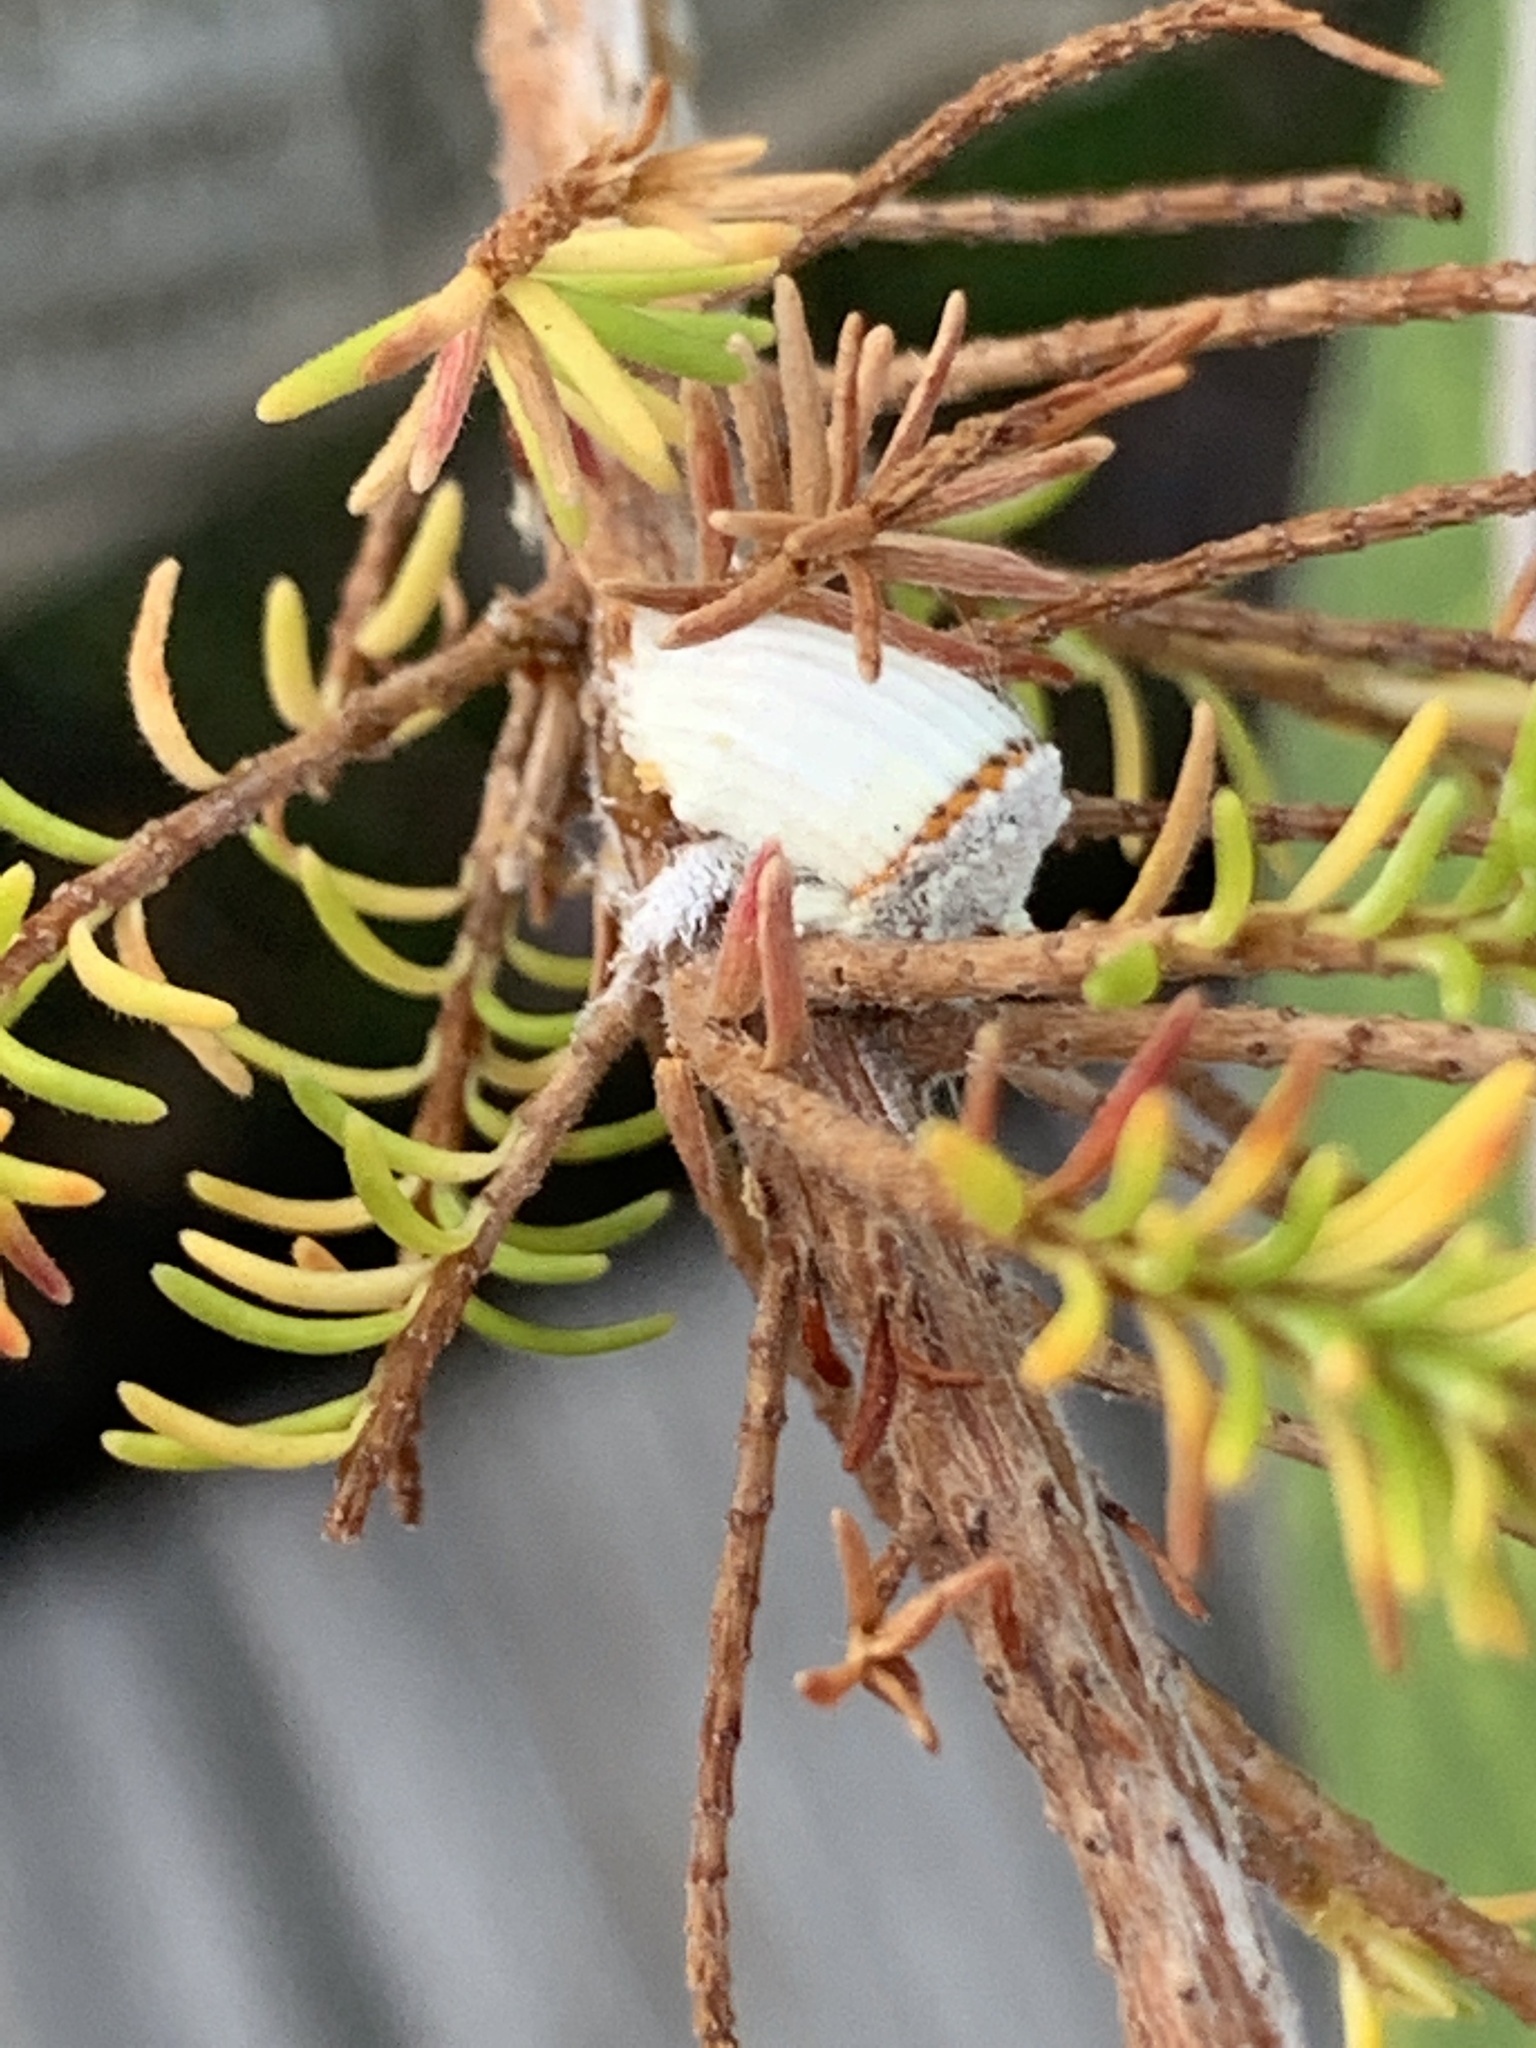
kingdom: Animalia
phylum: Arthropoda
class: Insecta
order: Hemiptera
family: Margarodidae
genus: Icerya
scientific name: Icerya purchasi
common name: Cottony cushion scale
